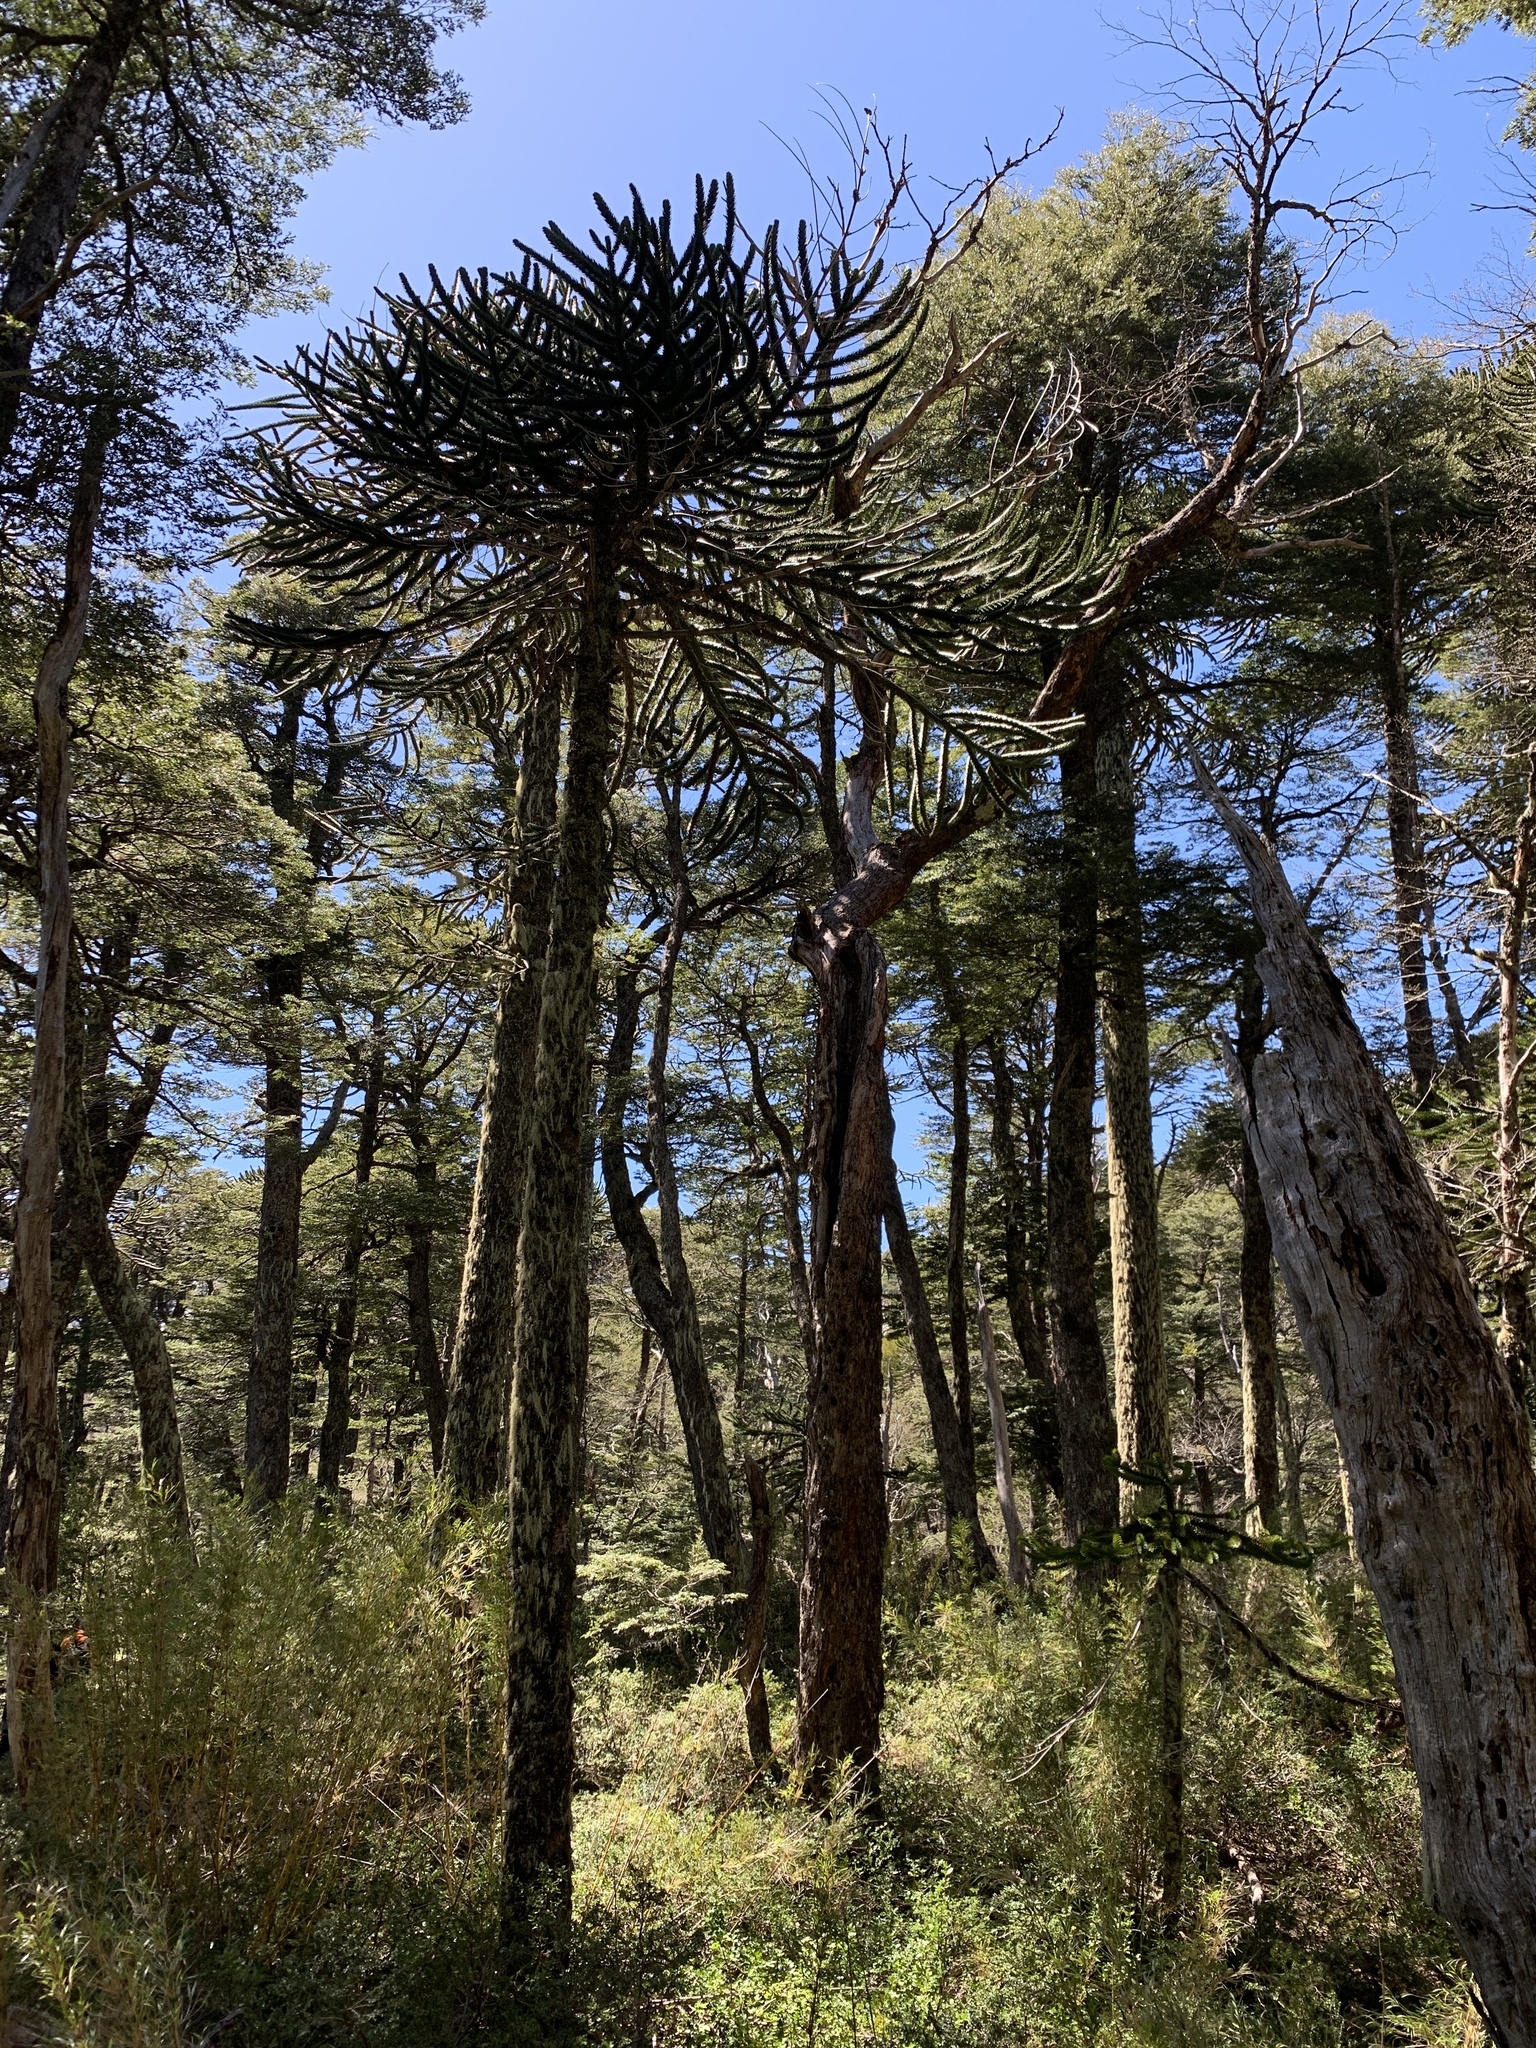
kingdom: Plantae
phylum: Tracheophyta
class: Pinopsida
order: Pinales
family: Araucariaceae
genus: Araucaria
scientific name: Araucaria araucana
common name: Monkey-puzzle
